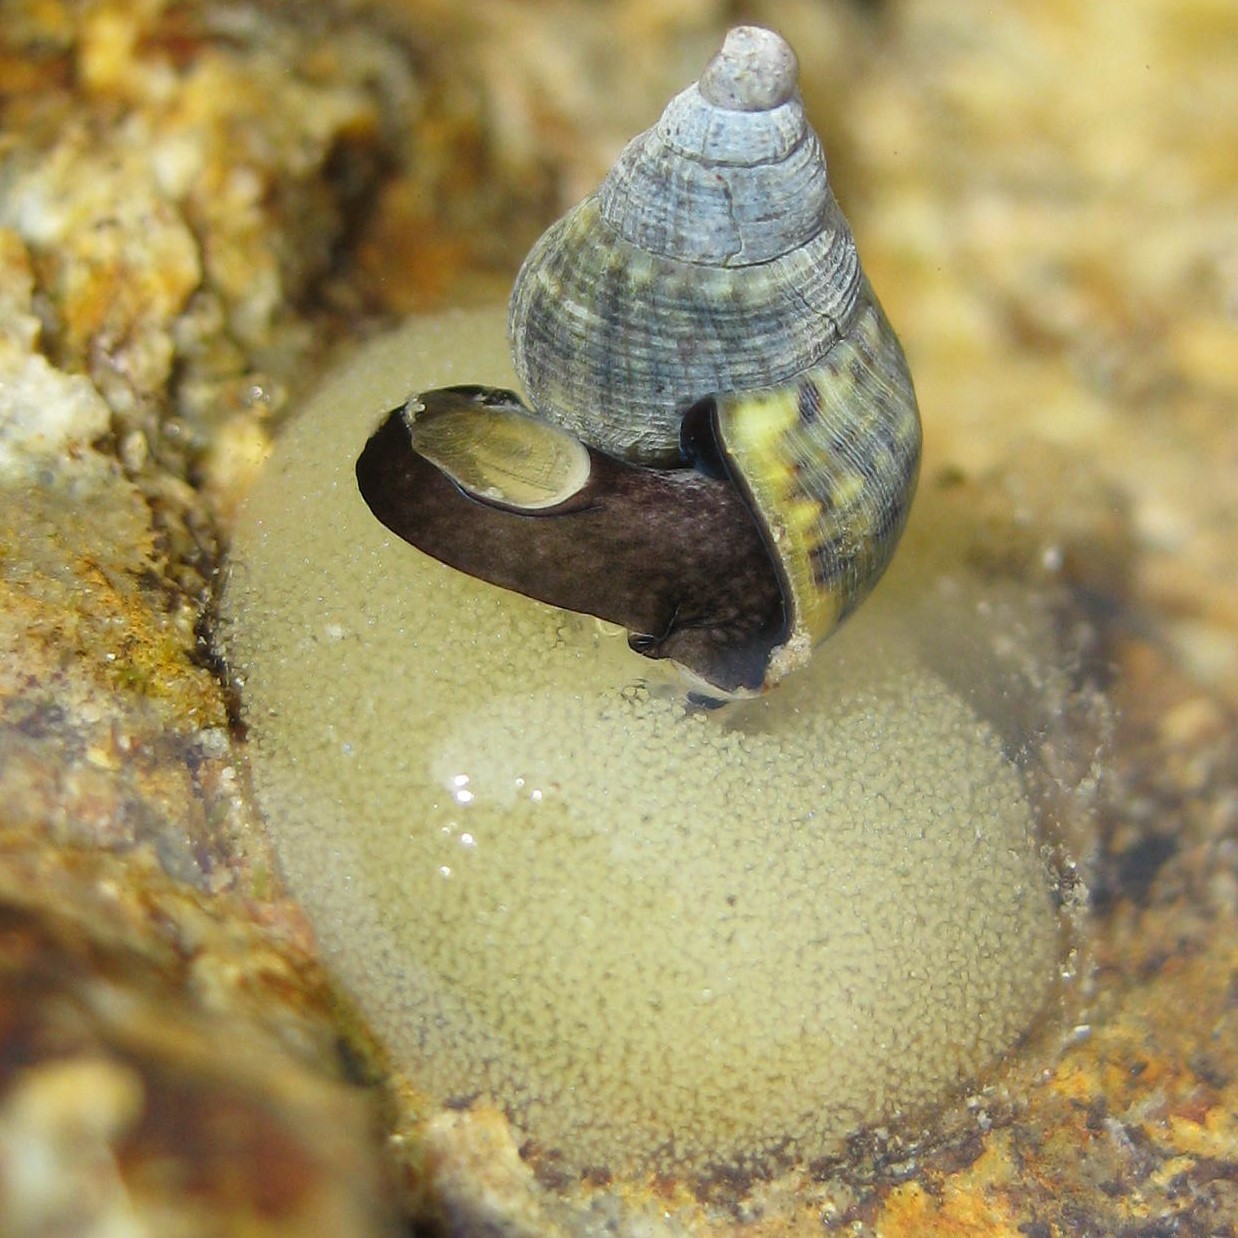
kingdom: Animalia
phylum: Mollusca
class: Gastropoda
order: Neogastropoda
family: Cominellidae
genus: Cominella
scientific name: Cominella maculosa
